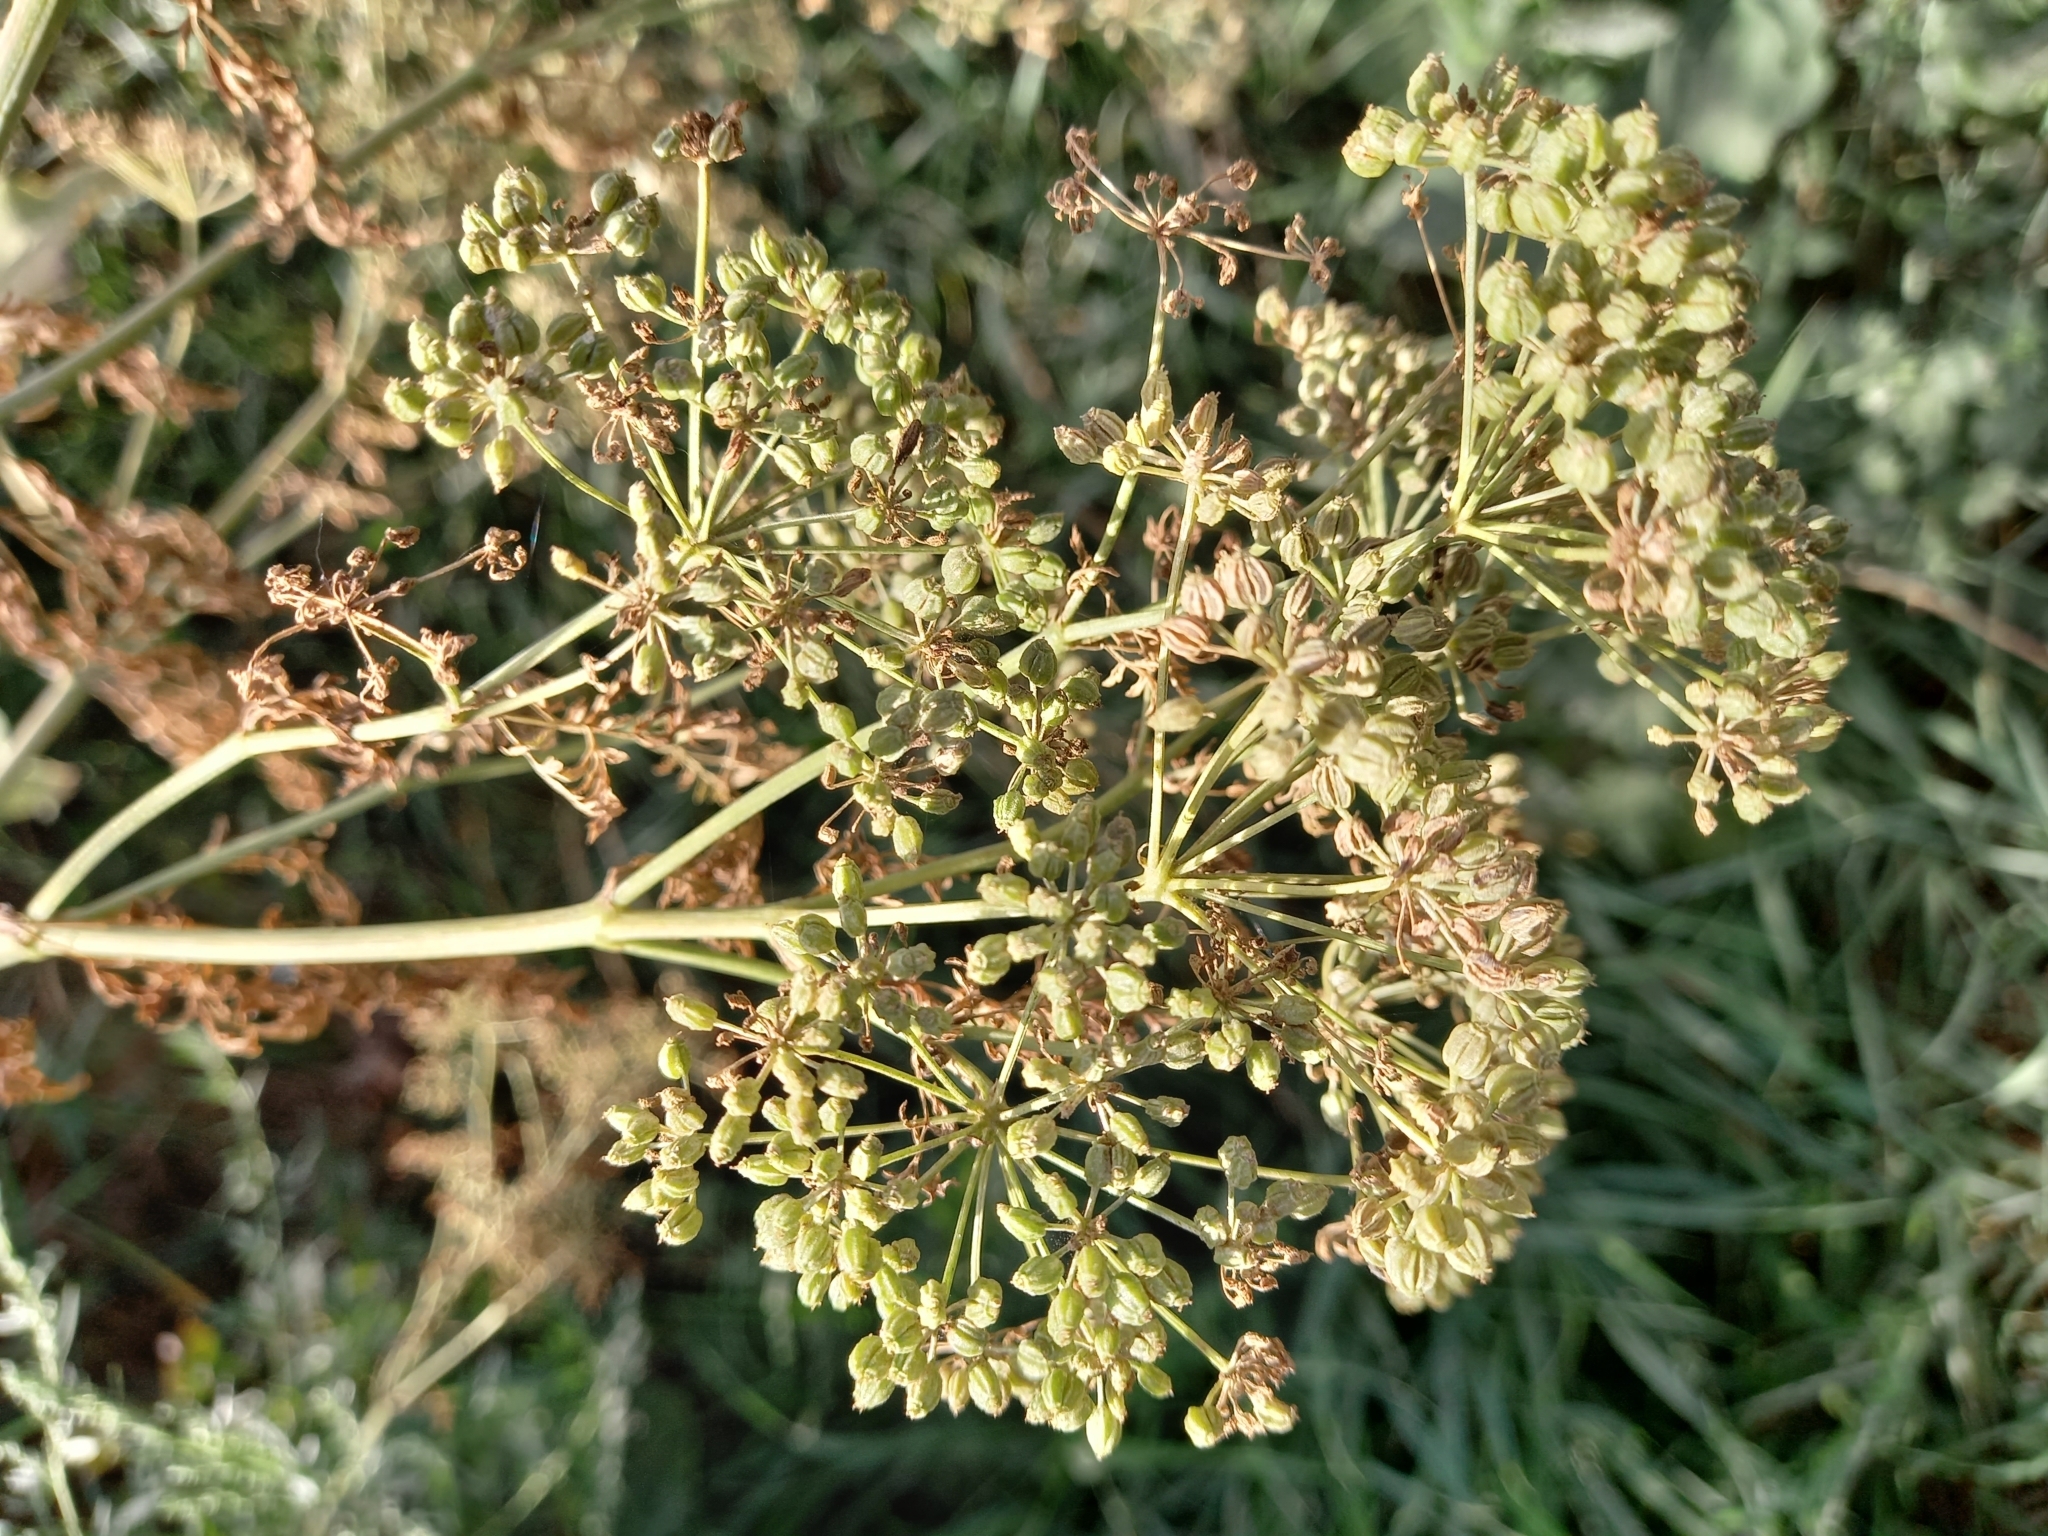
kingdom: Plantae
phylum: Tracheophyta
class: Magnoliopsida
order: Apiales
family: Apiaceae
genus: Conium
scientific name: Conium maculatum
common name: Hemlock
